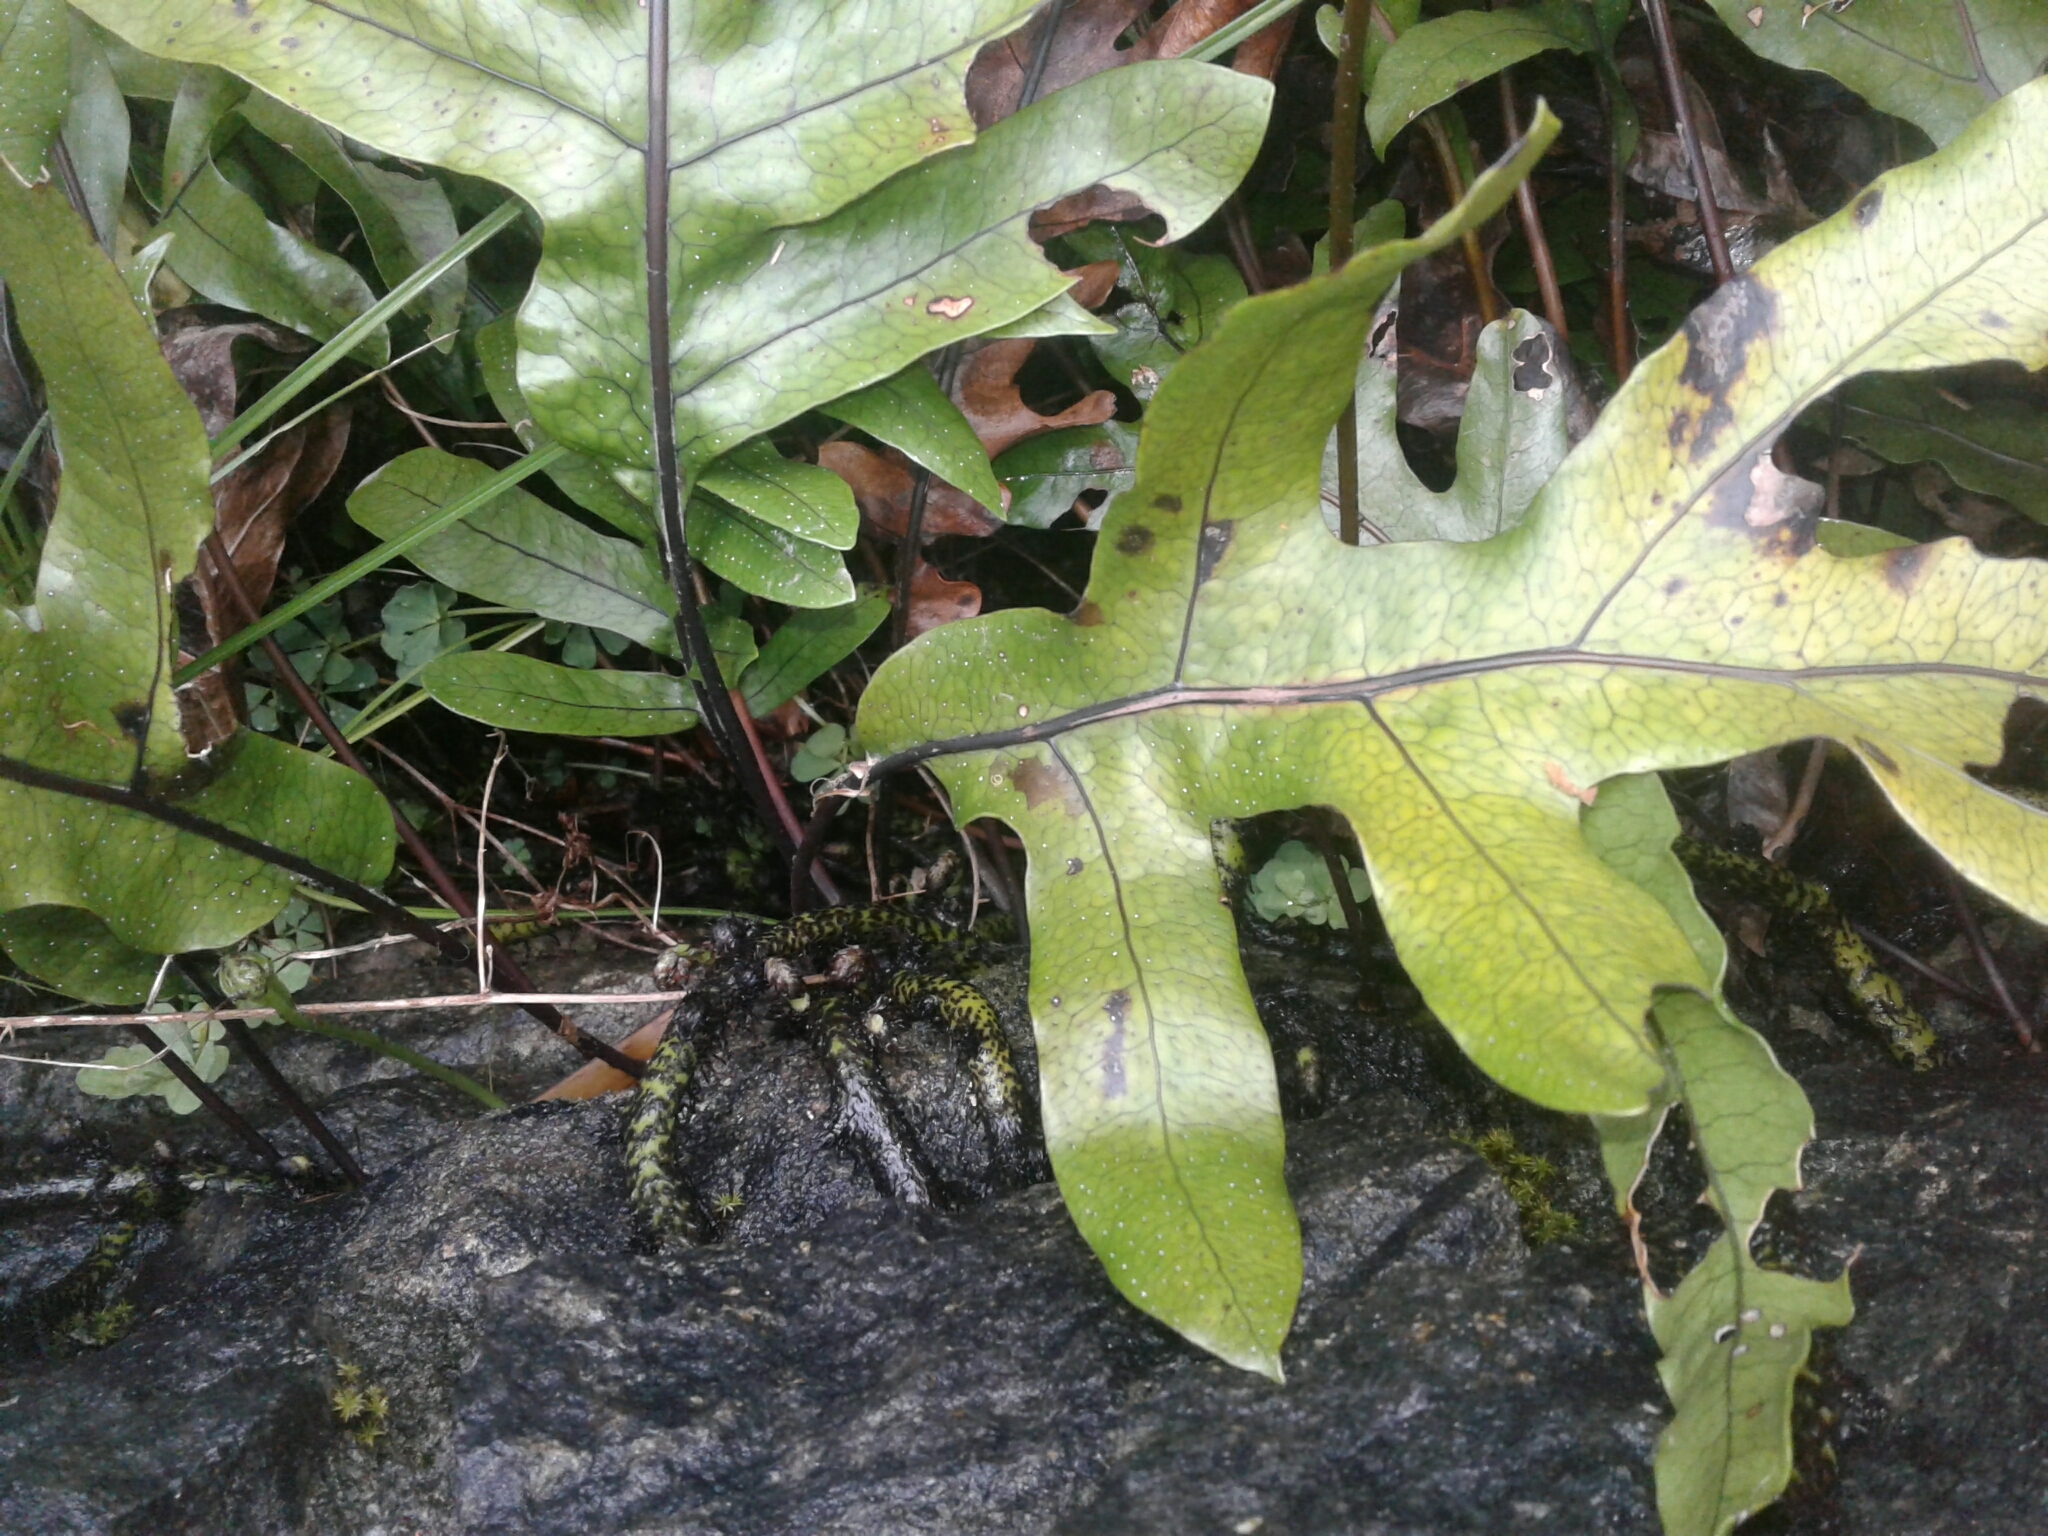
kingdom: Plantae
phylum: Tracheophyta
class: Polypodiopsida
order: Polypodiales
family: Polypodiaceae
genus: Lecanopteris
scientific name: Lecanopteris pustulata
